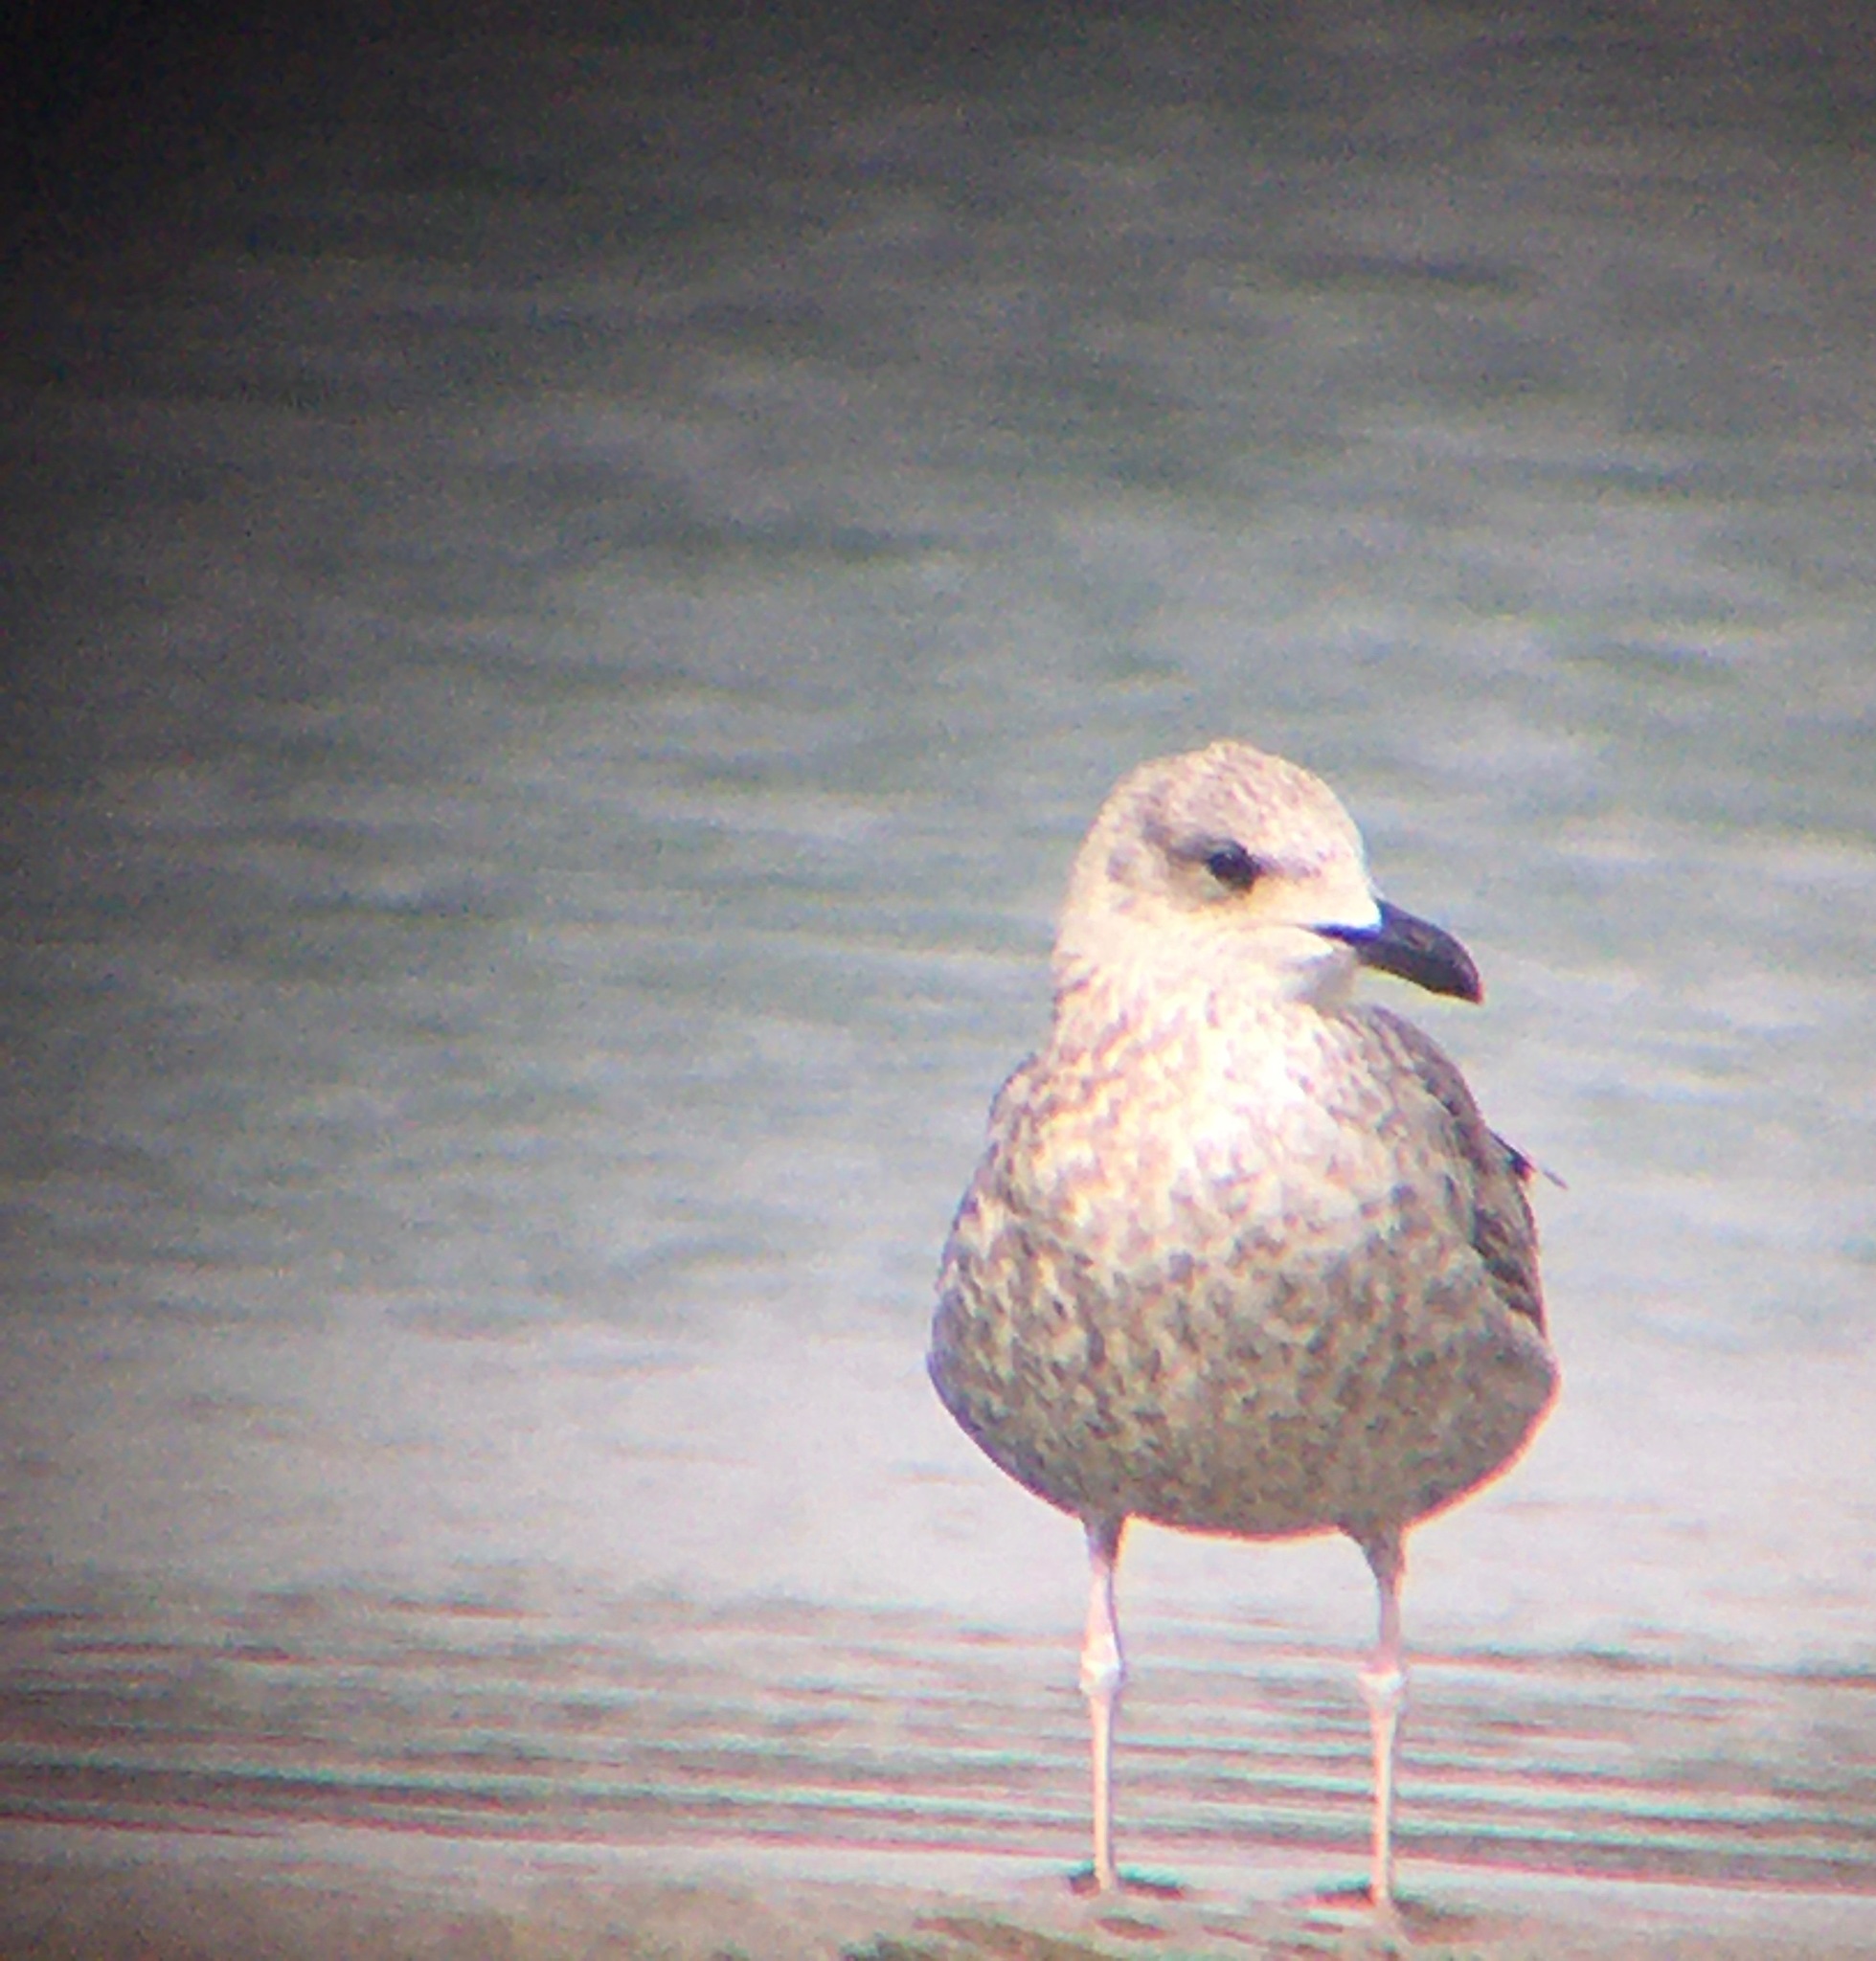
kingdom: Animalia
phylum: Chordata
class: Aves
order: Charadriiformes
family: Laridae
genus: Larus
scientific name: Larus fuscus
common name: Lesser black-backed gull
